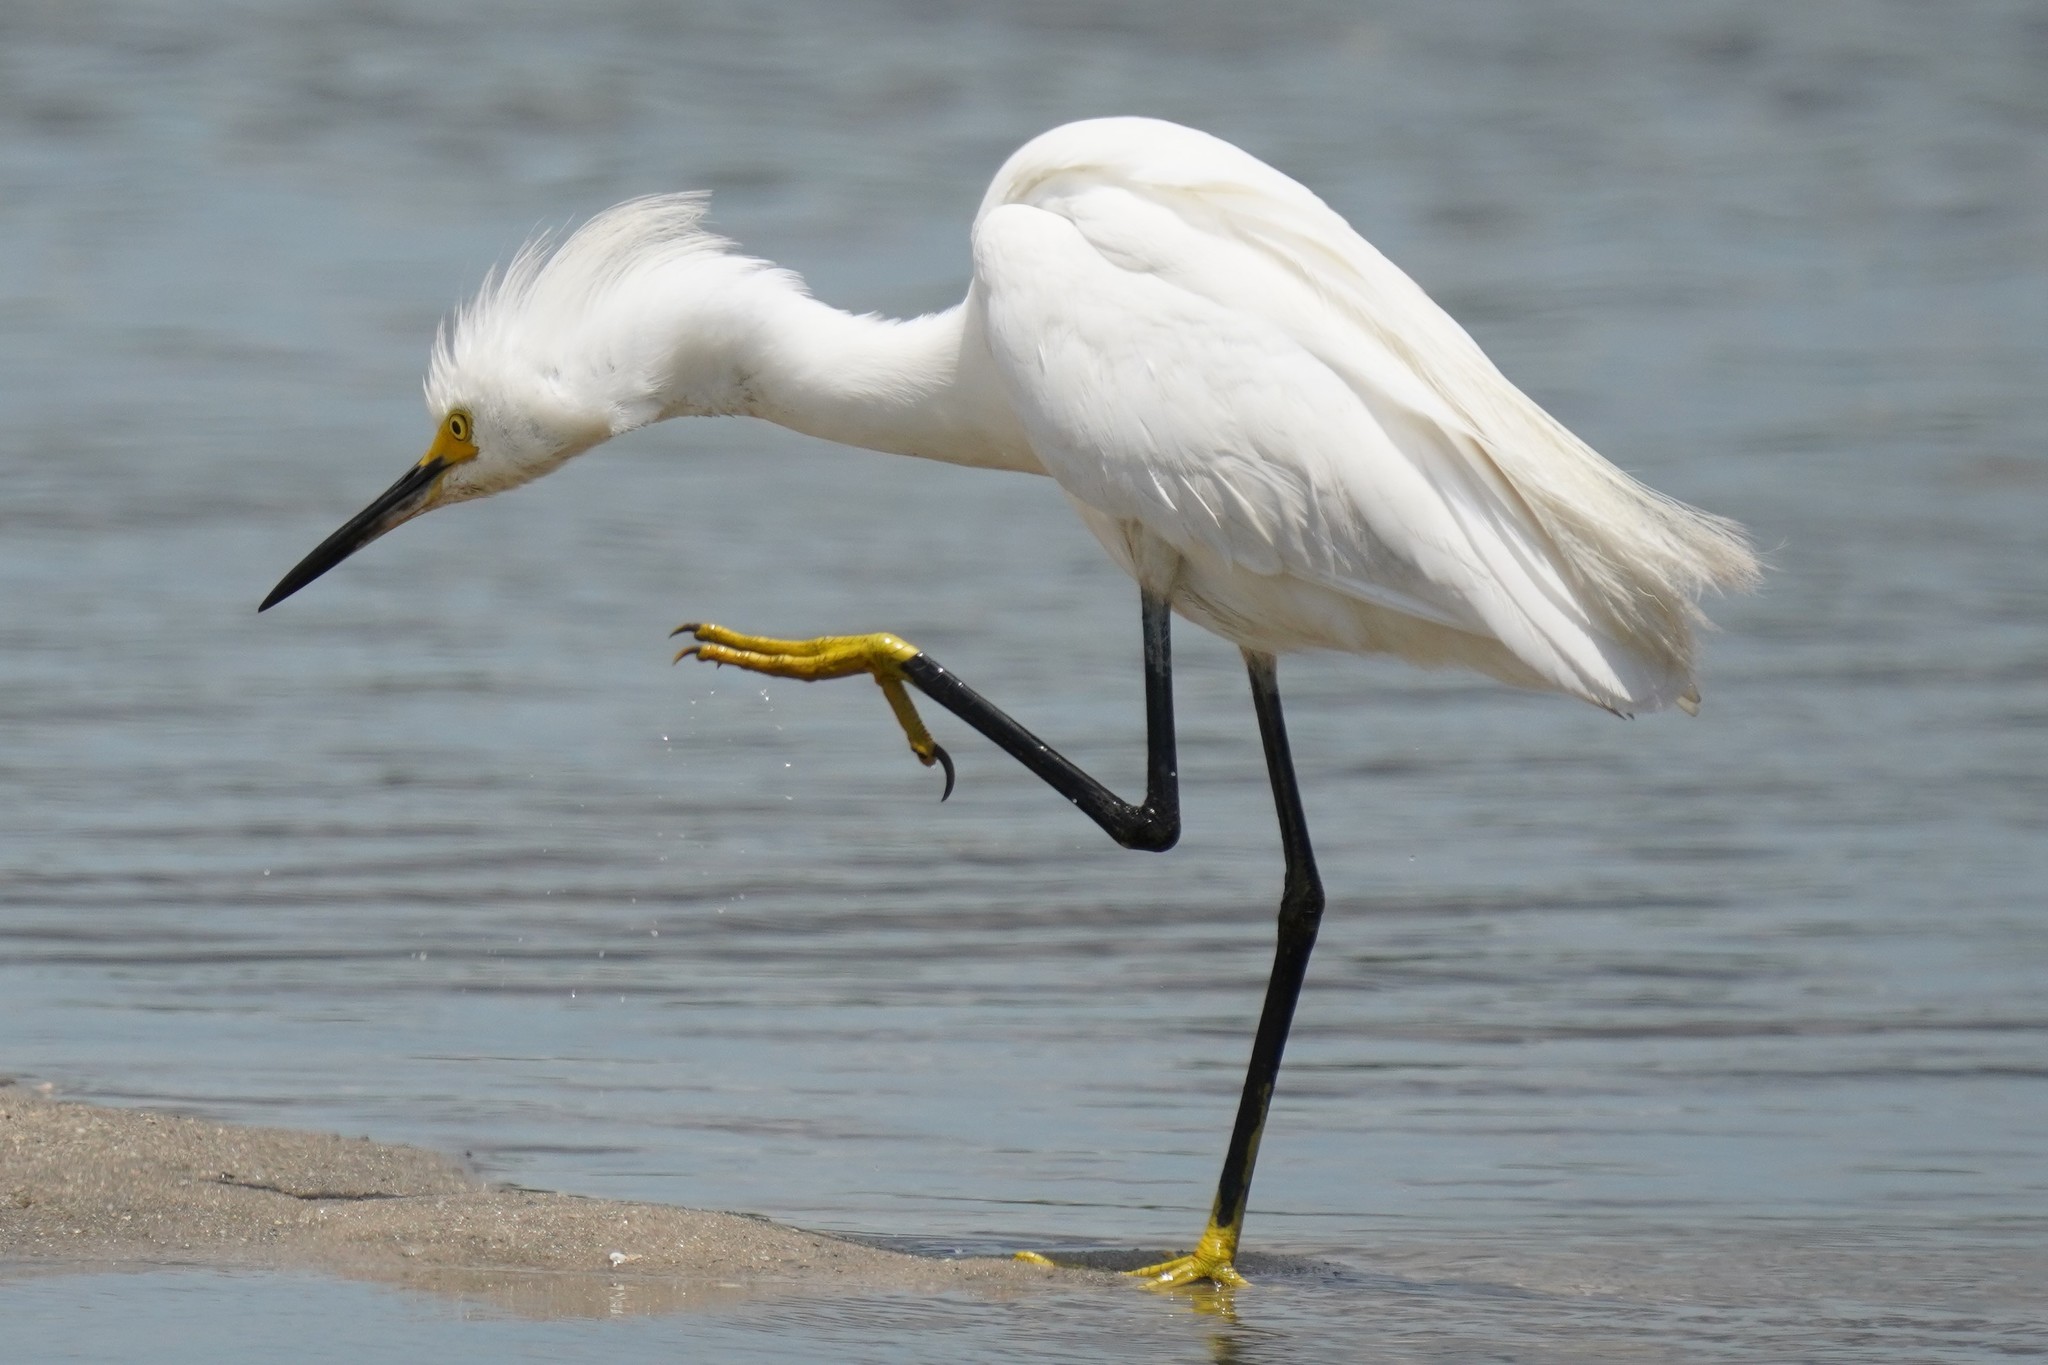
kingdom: Animalia
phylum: Chordata
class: Aves
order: Pelecaniformes
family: Ardeidae
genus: Egretta
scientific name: Egretta thula
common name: Snowy egret
